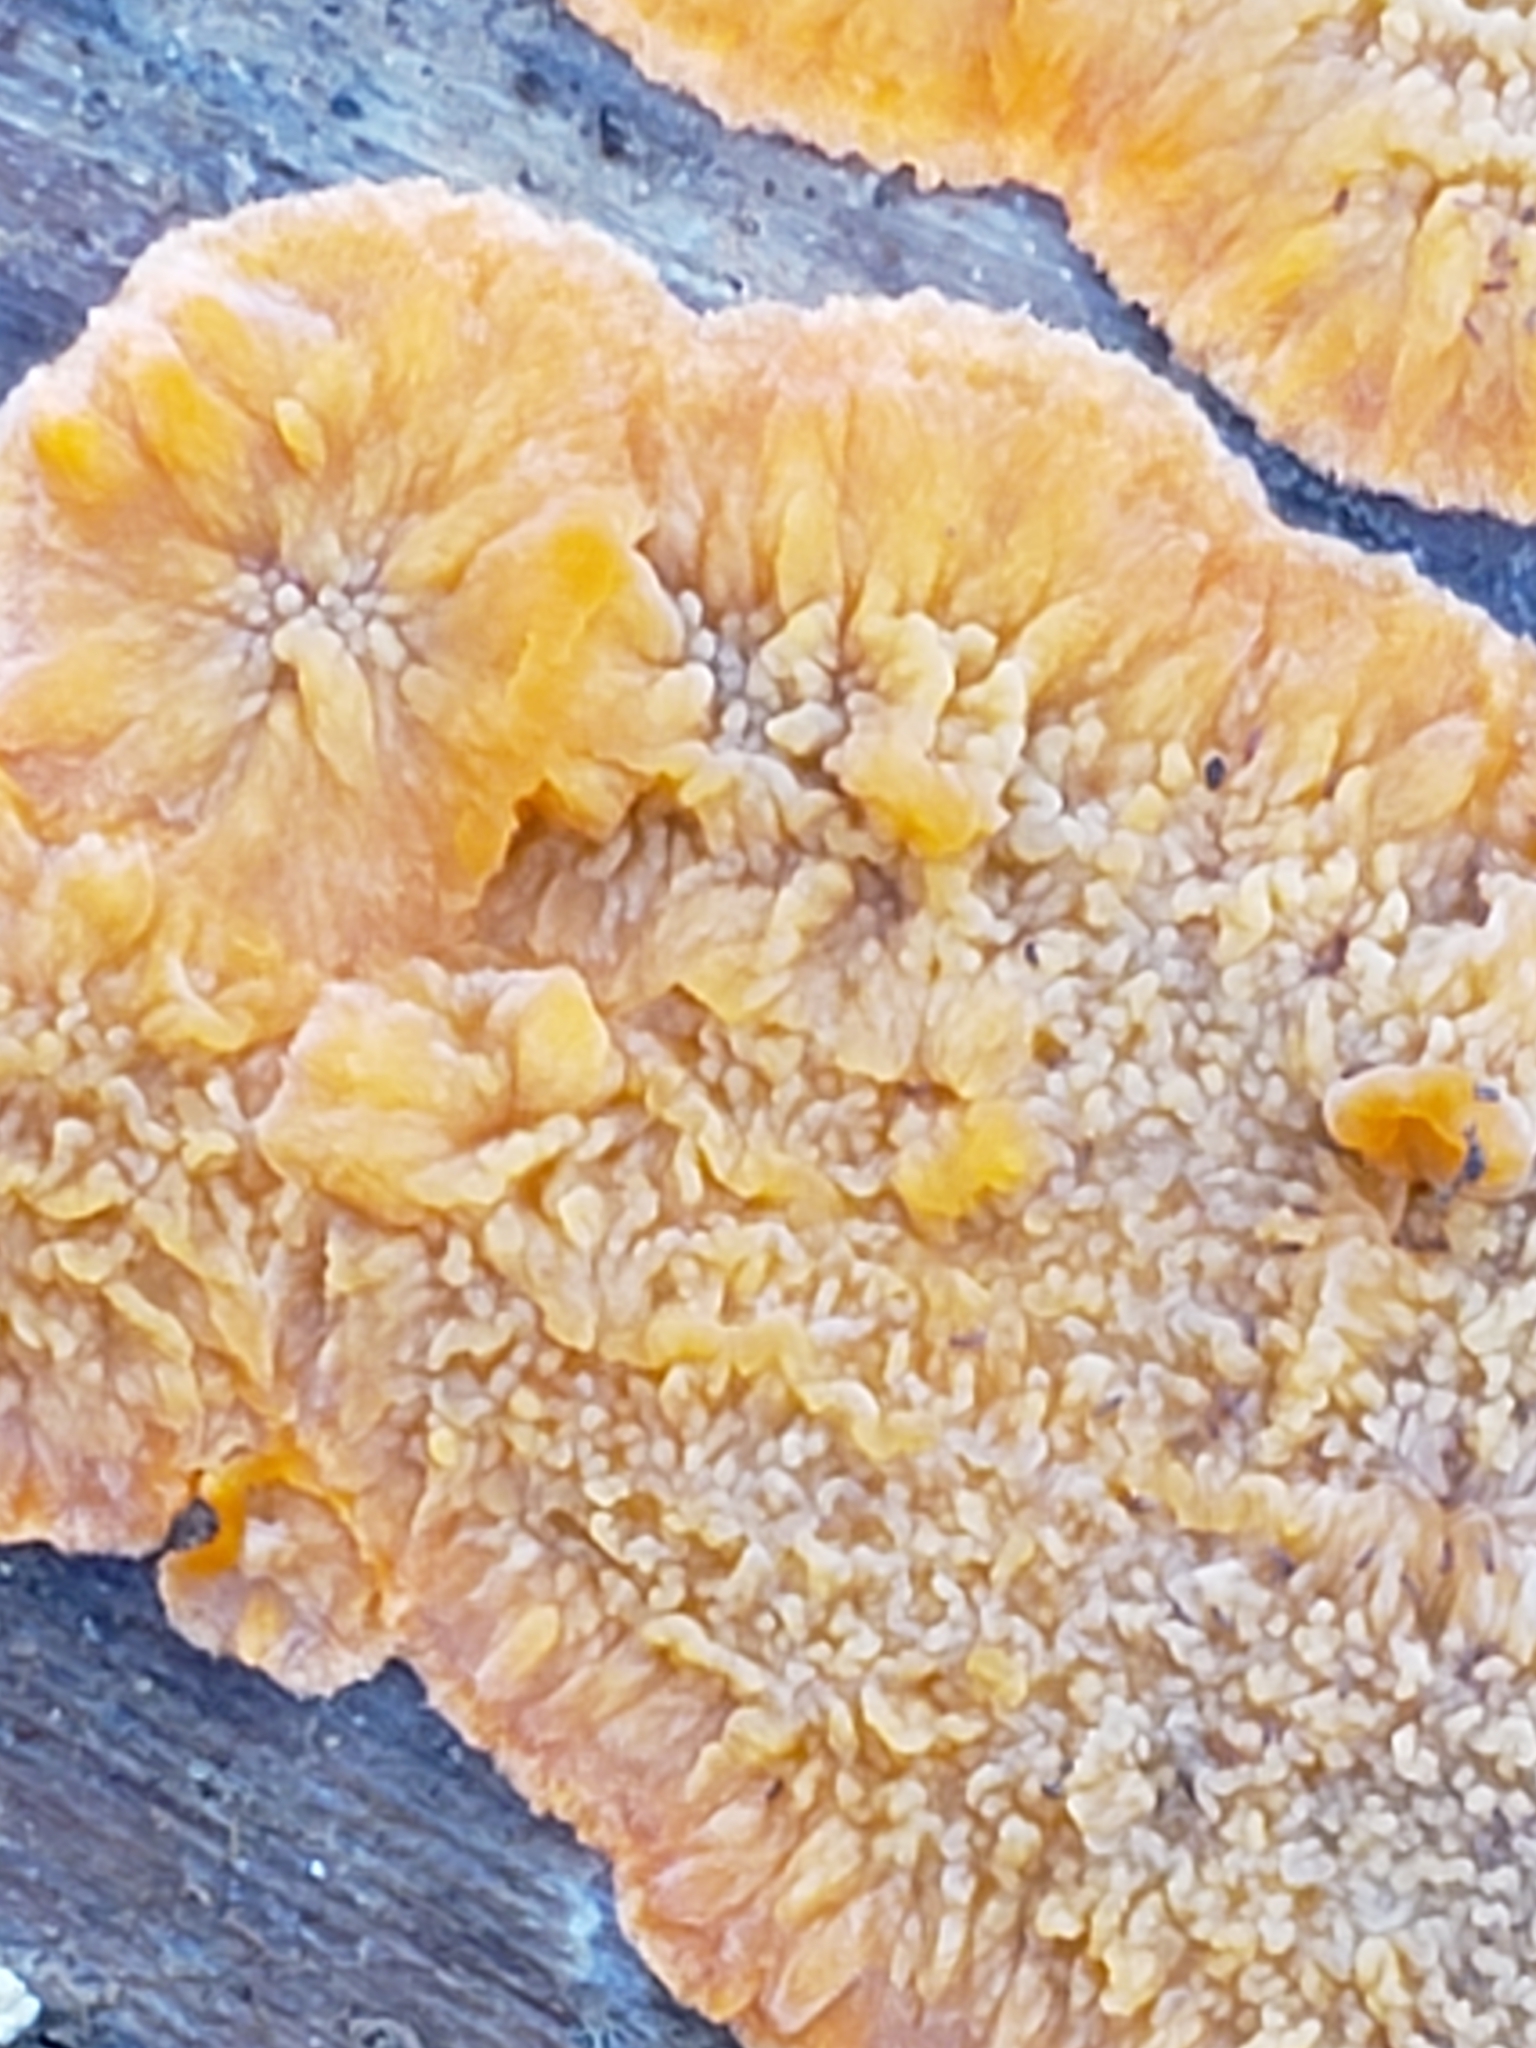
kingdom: Fungi
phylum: Basidiomycota
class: Agaricomycetes
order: Polyporales
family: Meruliaceae
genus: Phlebia
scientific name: Phlebia radiata
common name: Wrinkled crust
